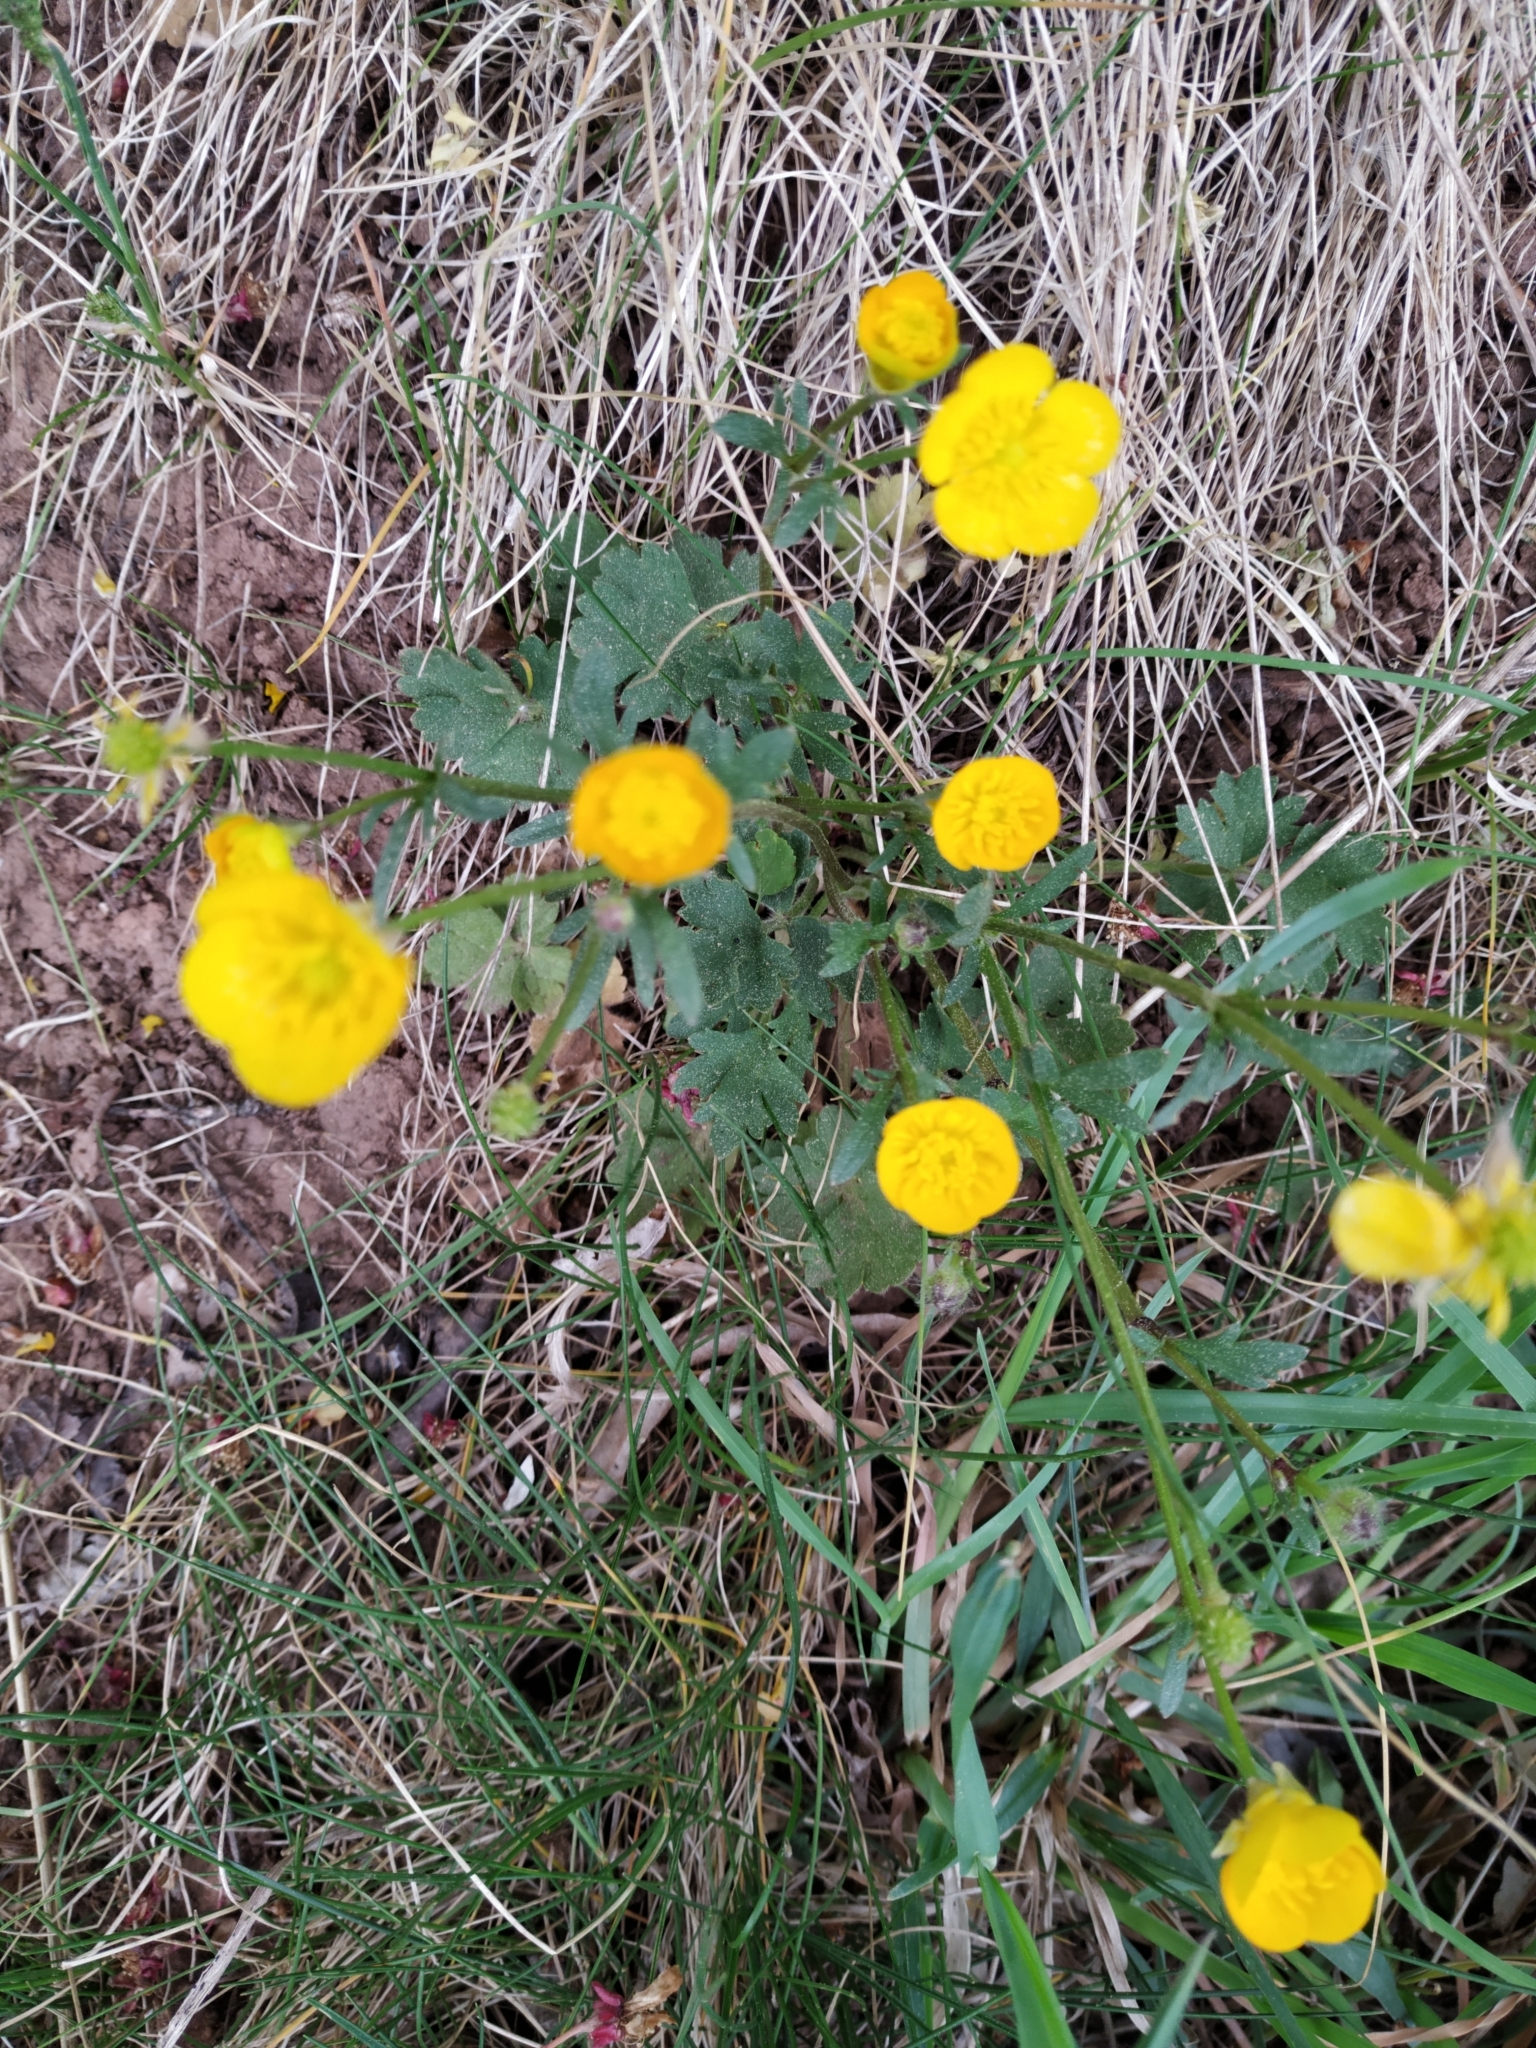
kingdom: Plantae
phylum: Tracheophyta
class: Magnoliopsida
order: Ranunculales
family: Ranunculaceae
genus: Ranunculus
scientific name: Ranunculus bulbosus
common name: Bulbous buttercup
